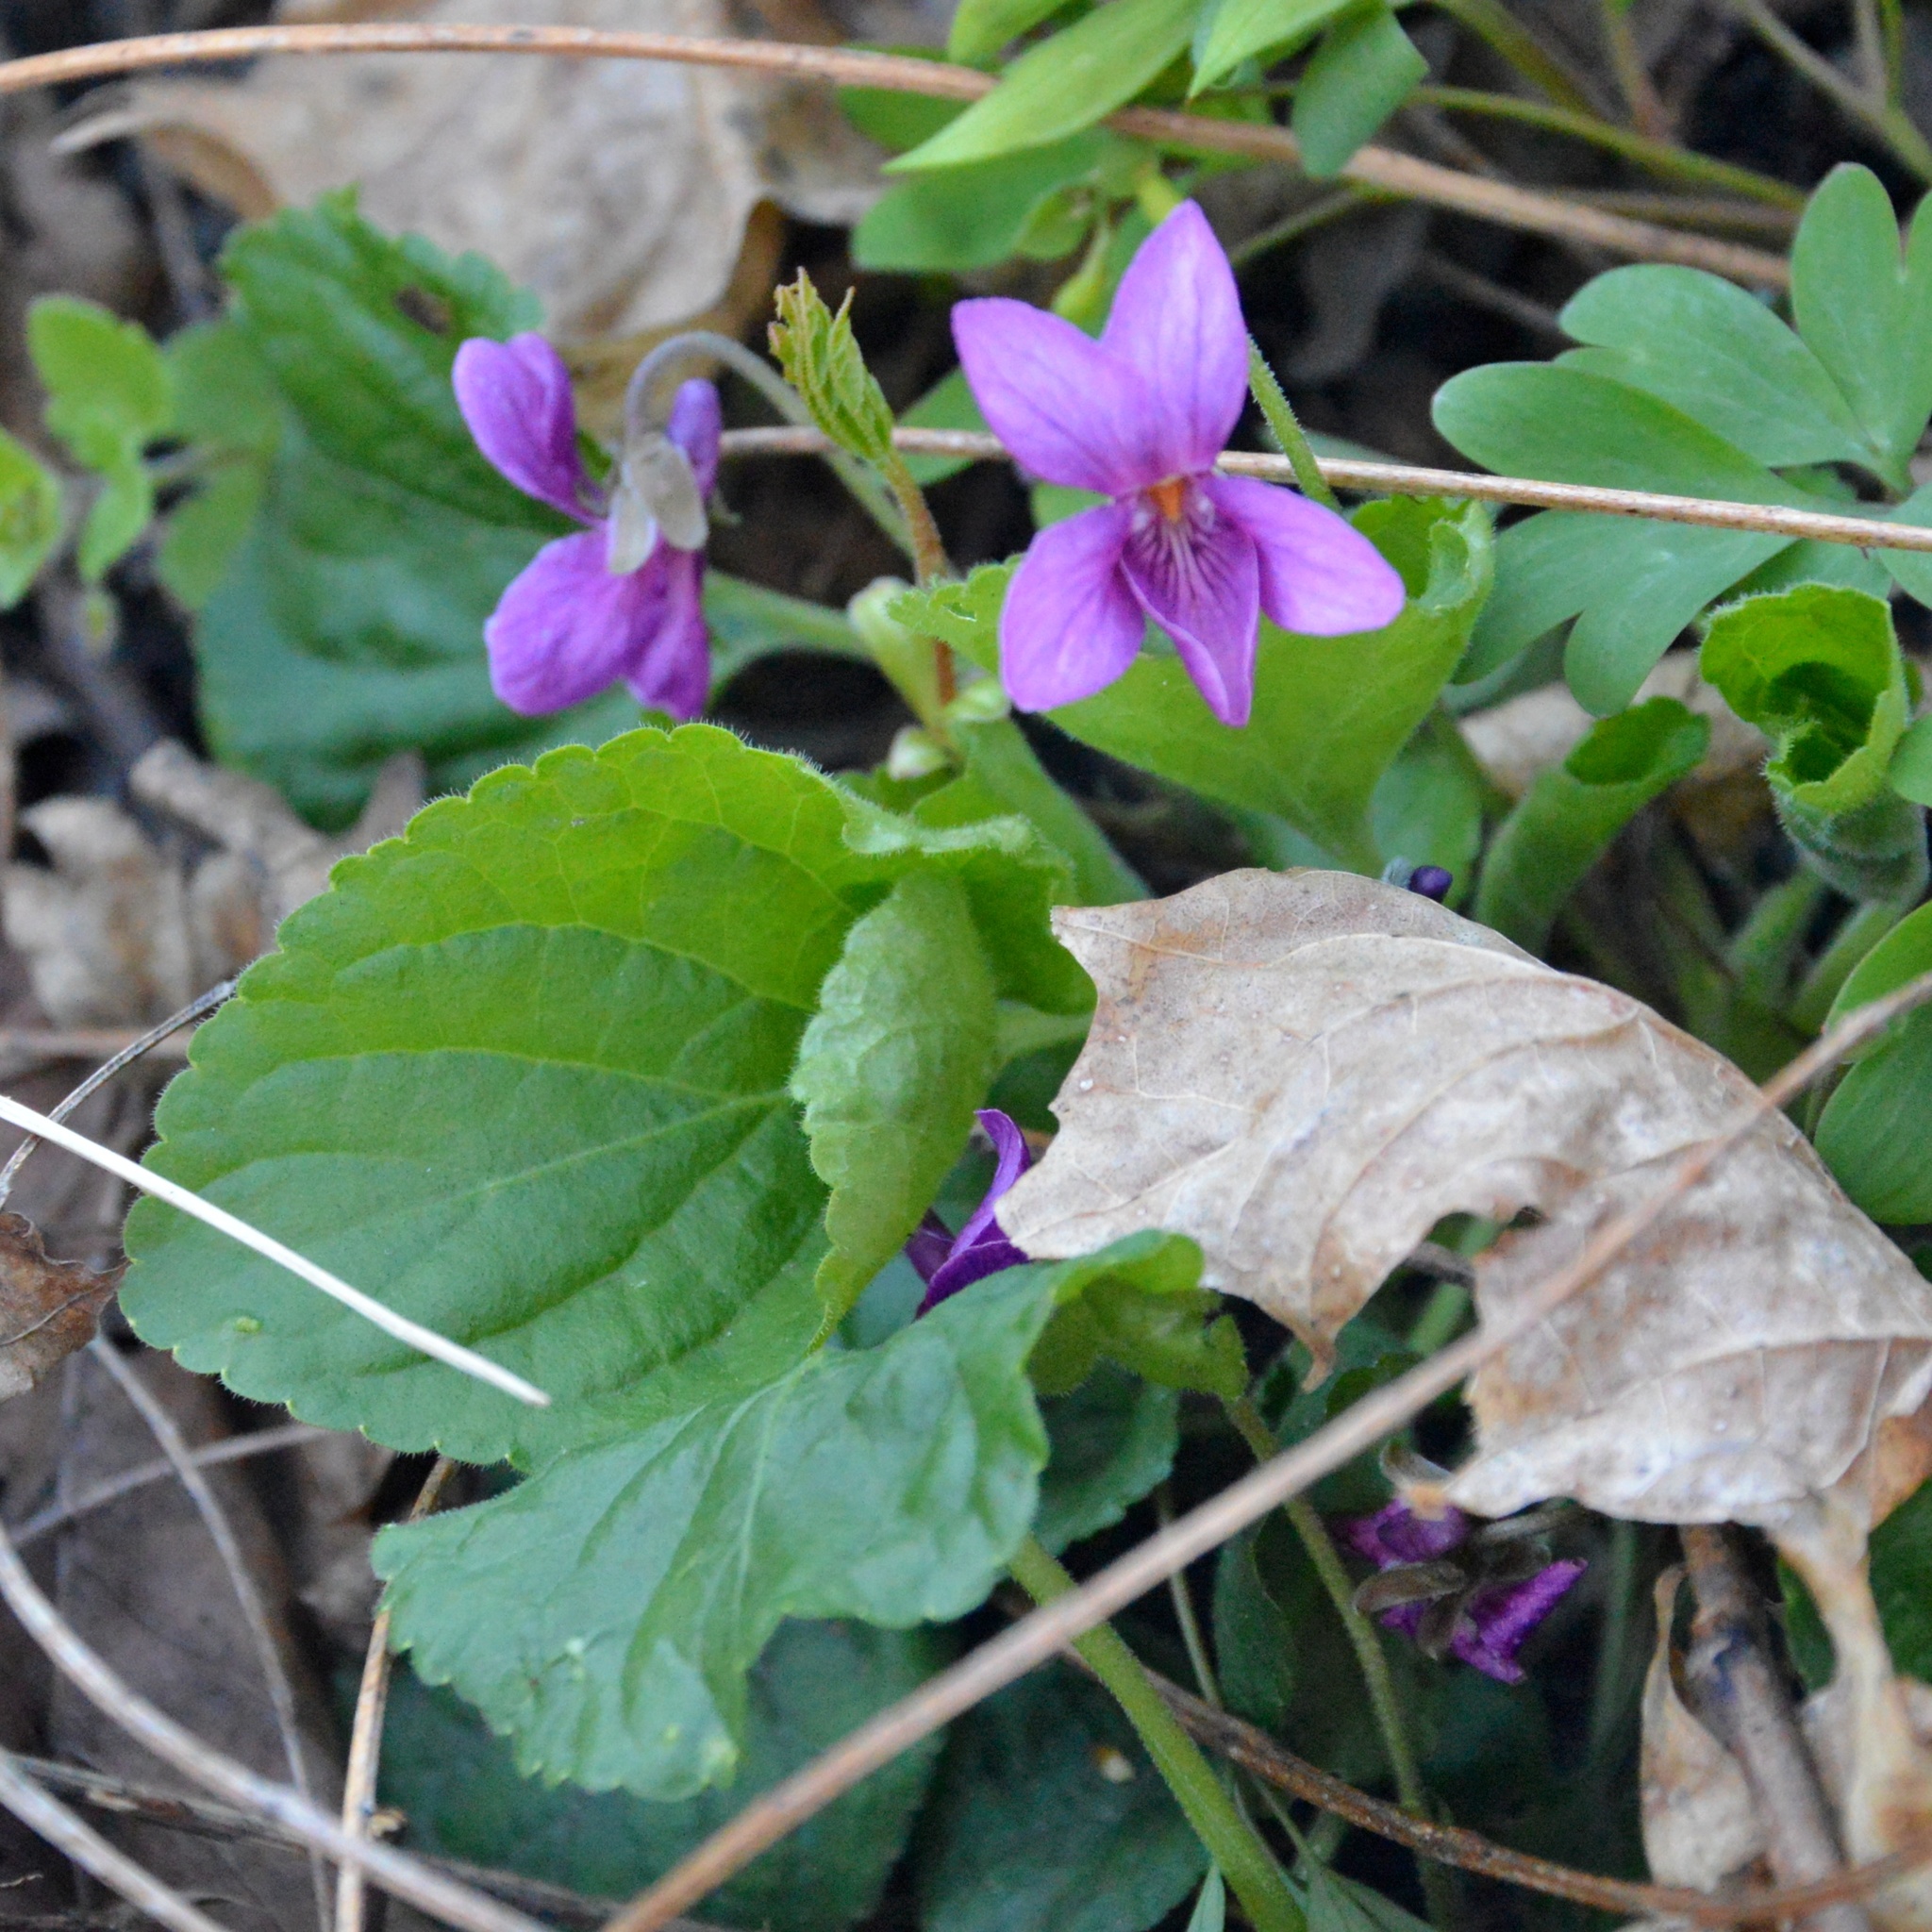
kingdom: Plantae
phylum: Tracheophyta
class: Magnoliopsida
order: Malpighiales
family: Violaceae
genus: Viola
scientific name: Viola odorata
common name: Sweet violet
